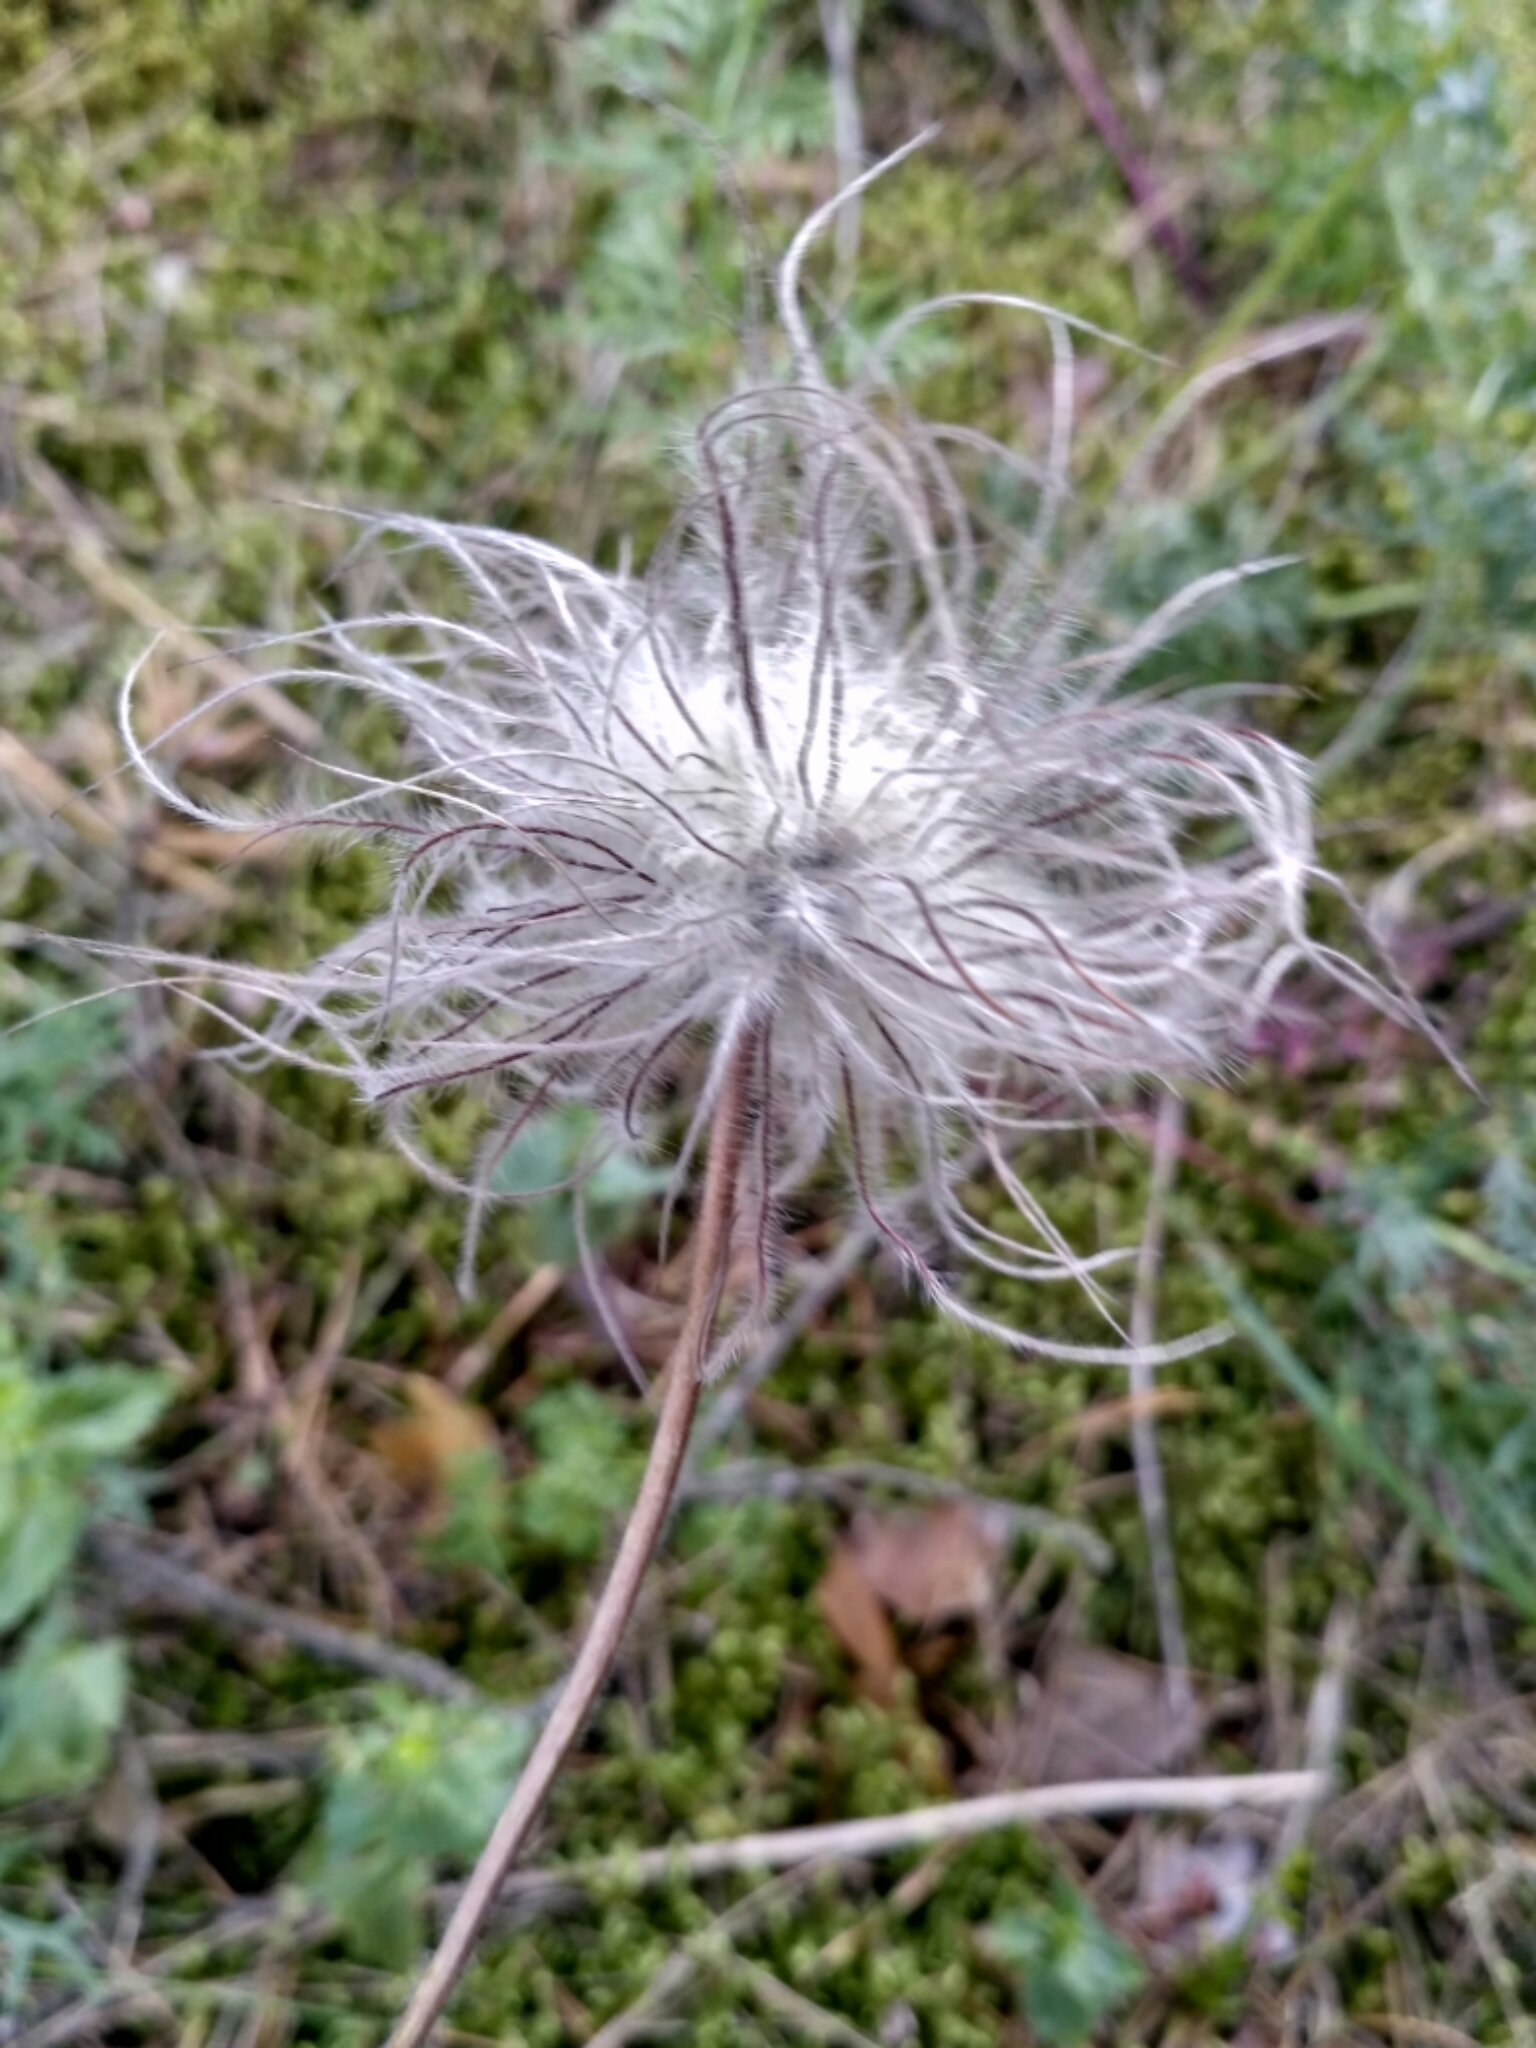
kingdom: Plantae
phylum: Tracheophyta
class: Magnoliopsida
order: Ranunculales
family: Ranunculaceae
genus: Pulsatilla
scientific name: Pulsatilla pratensis
